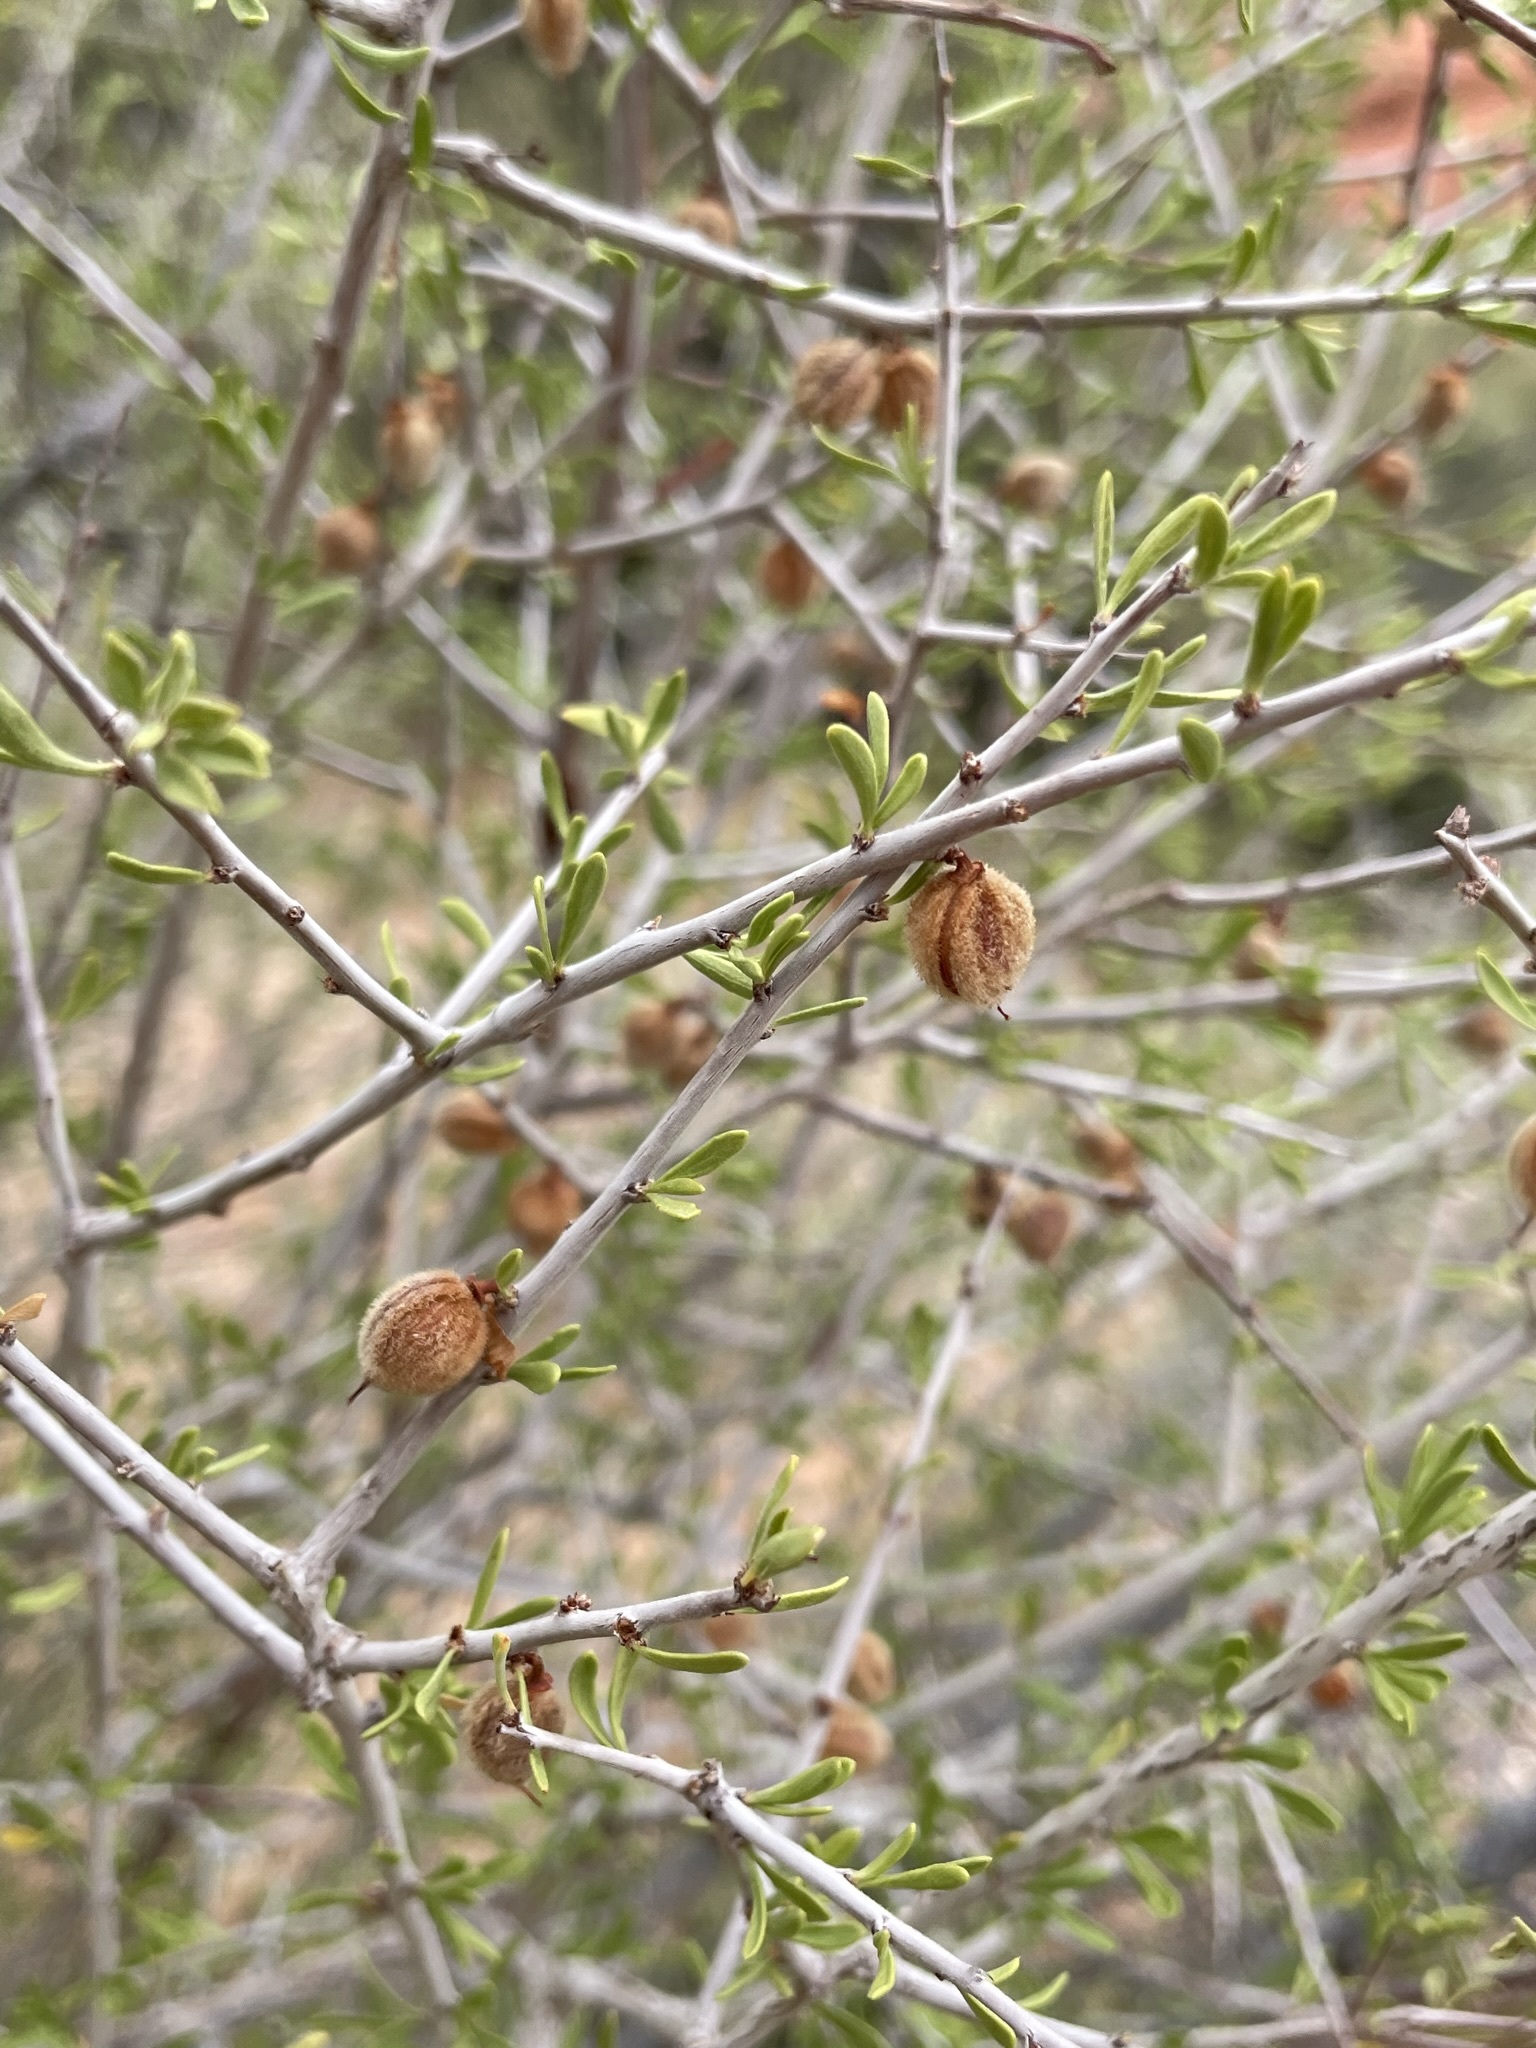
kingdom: Plantae
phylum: Tracheophyta
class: Magnoliopsida
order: Rosales
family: Rosaceae
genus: Prunus
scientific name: Prunus fasciculata
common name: Desert almond
